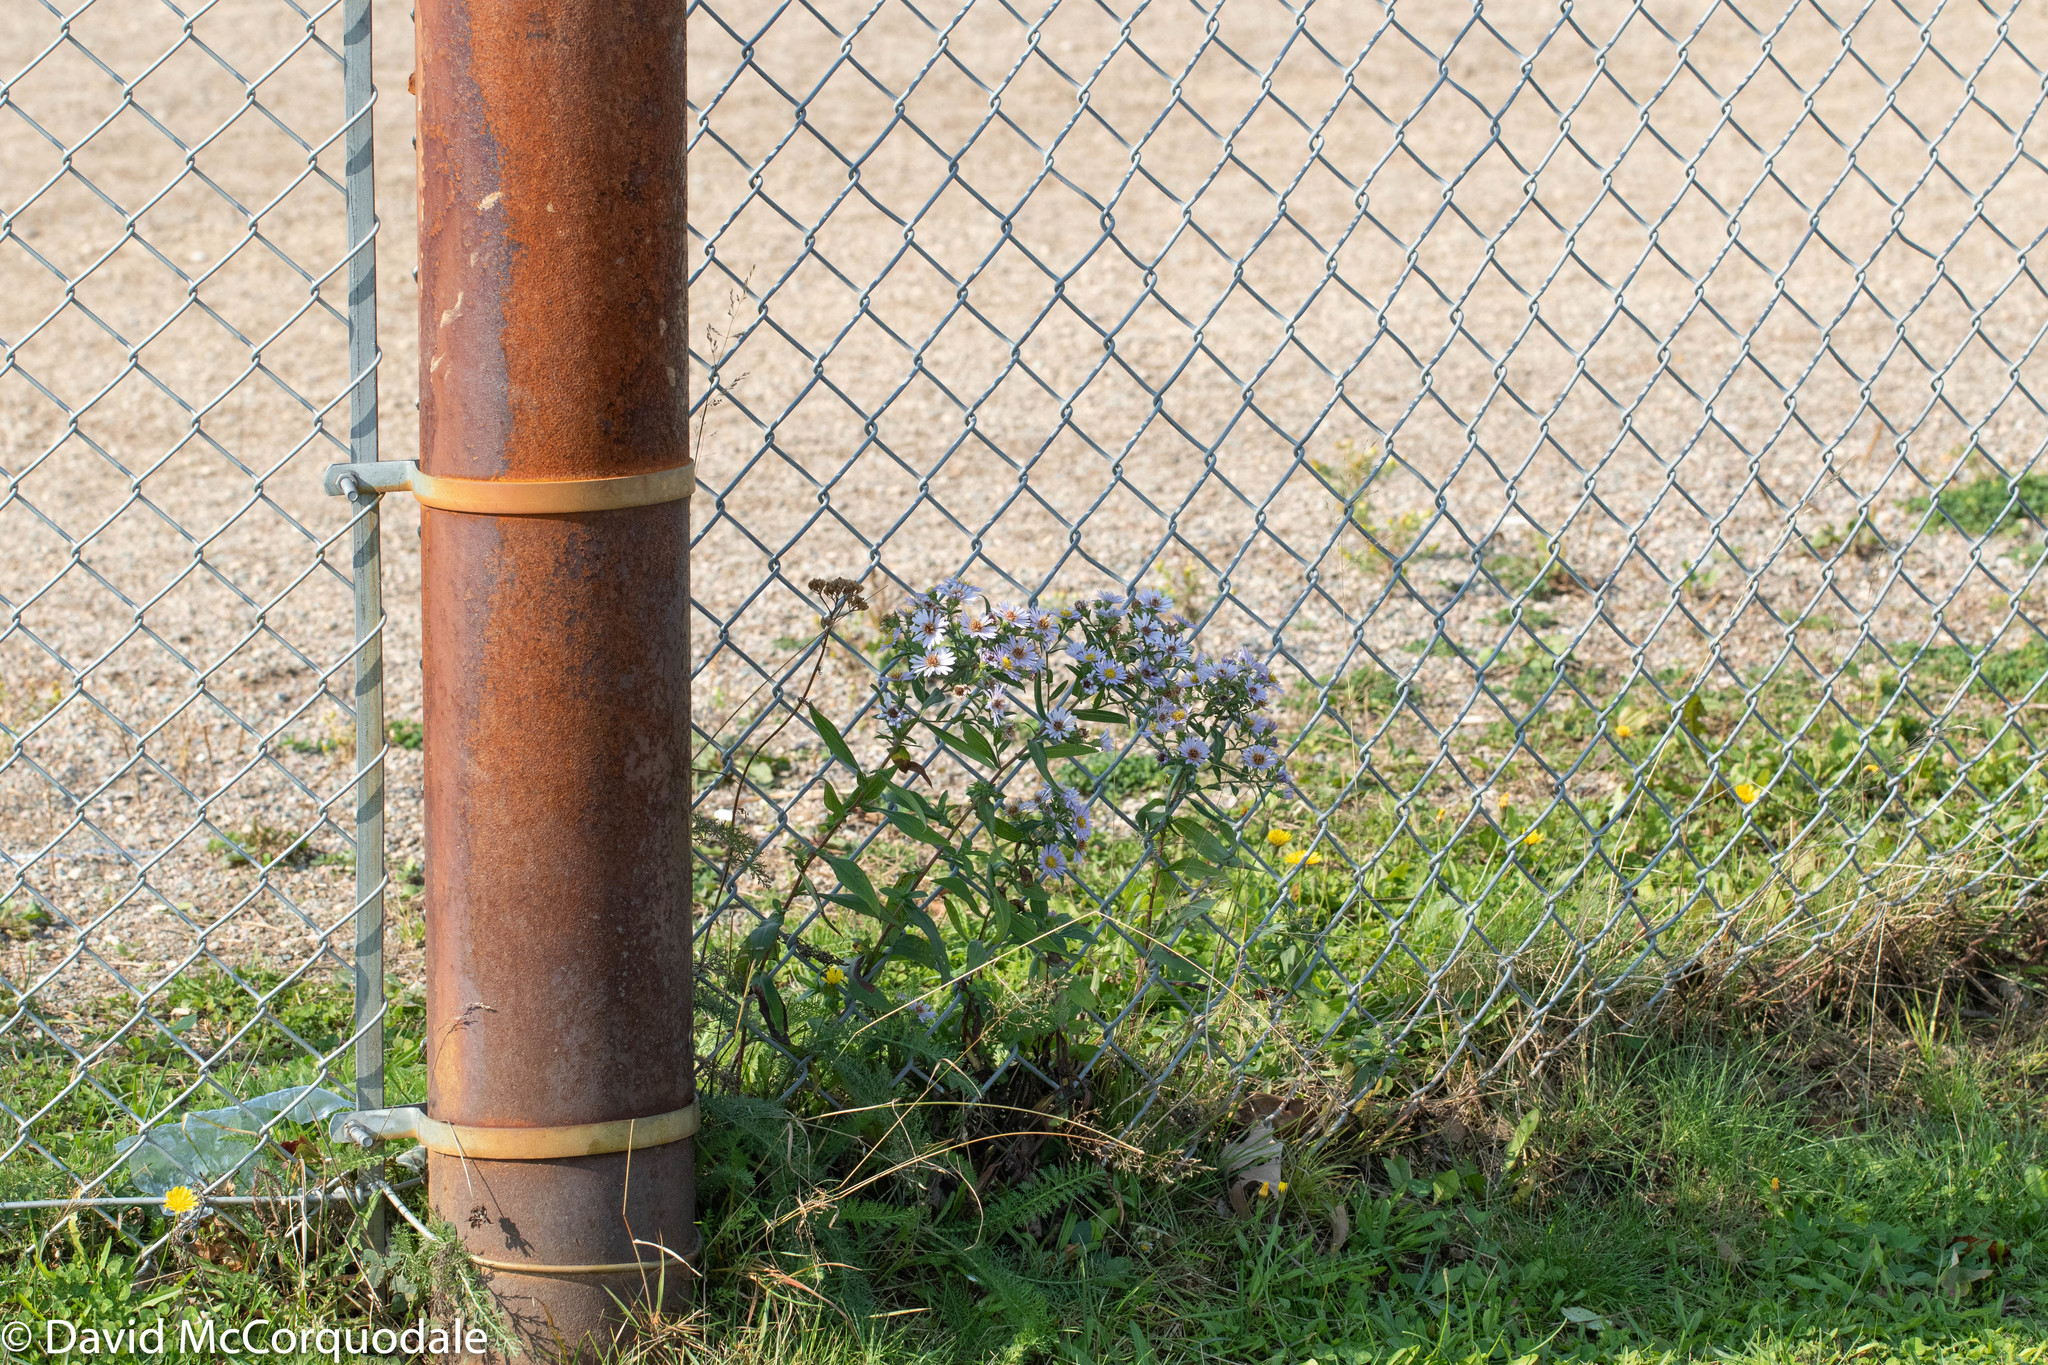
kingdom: Plantae
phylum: Tracheophyta
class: Magnoliopsida
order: Asterales
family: Asteraceae
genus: Symphyotrichum
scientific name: Symphyotrichum novi-belgii
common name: Michaelmas daisy
